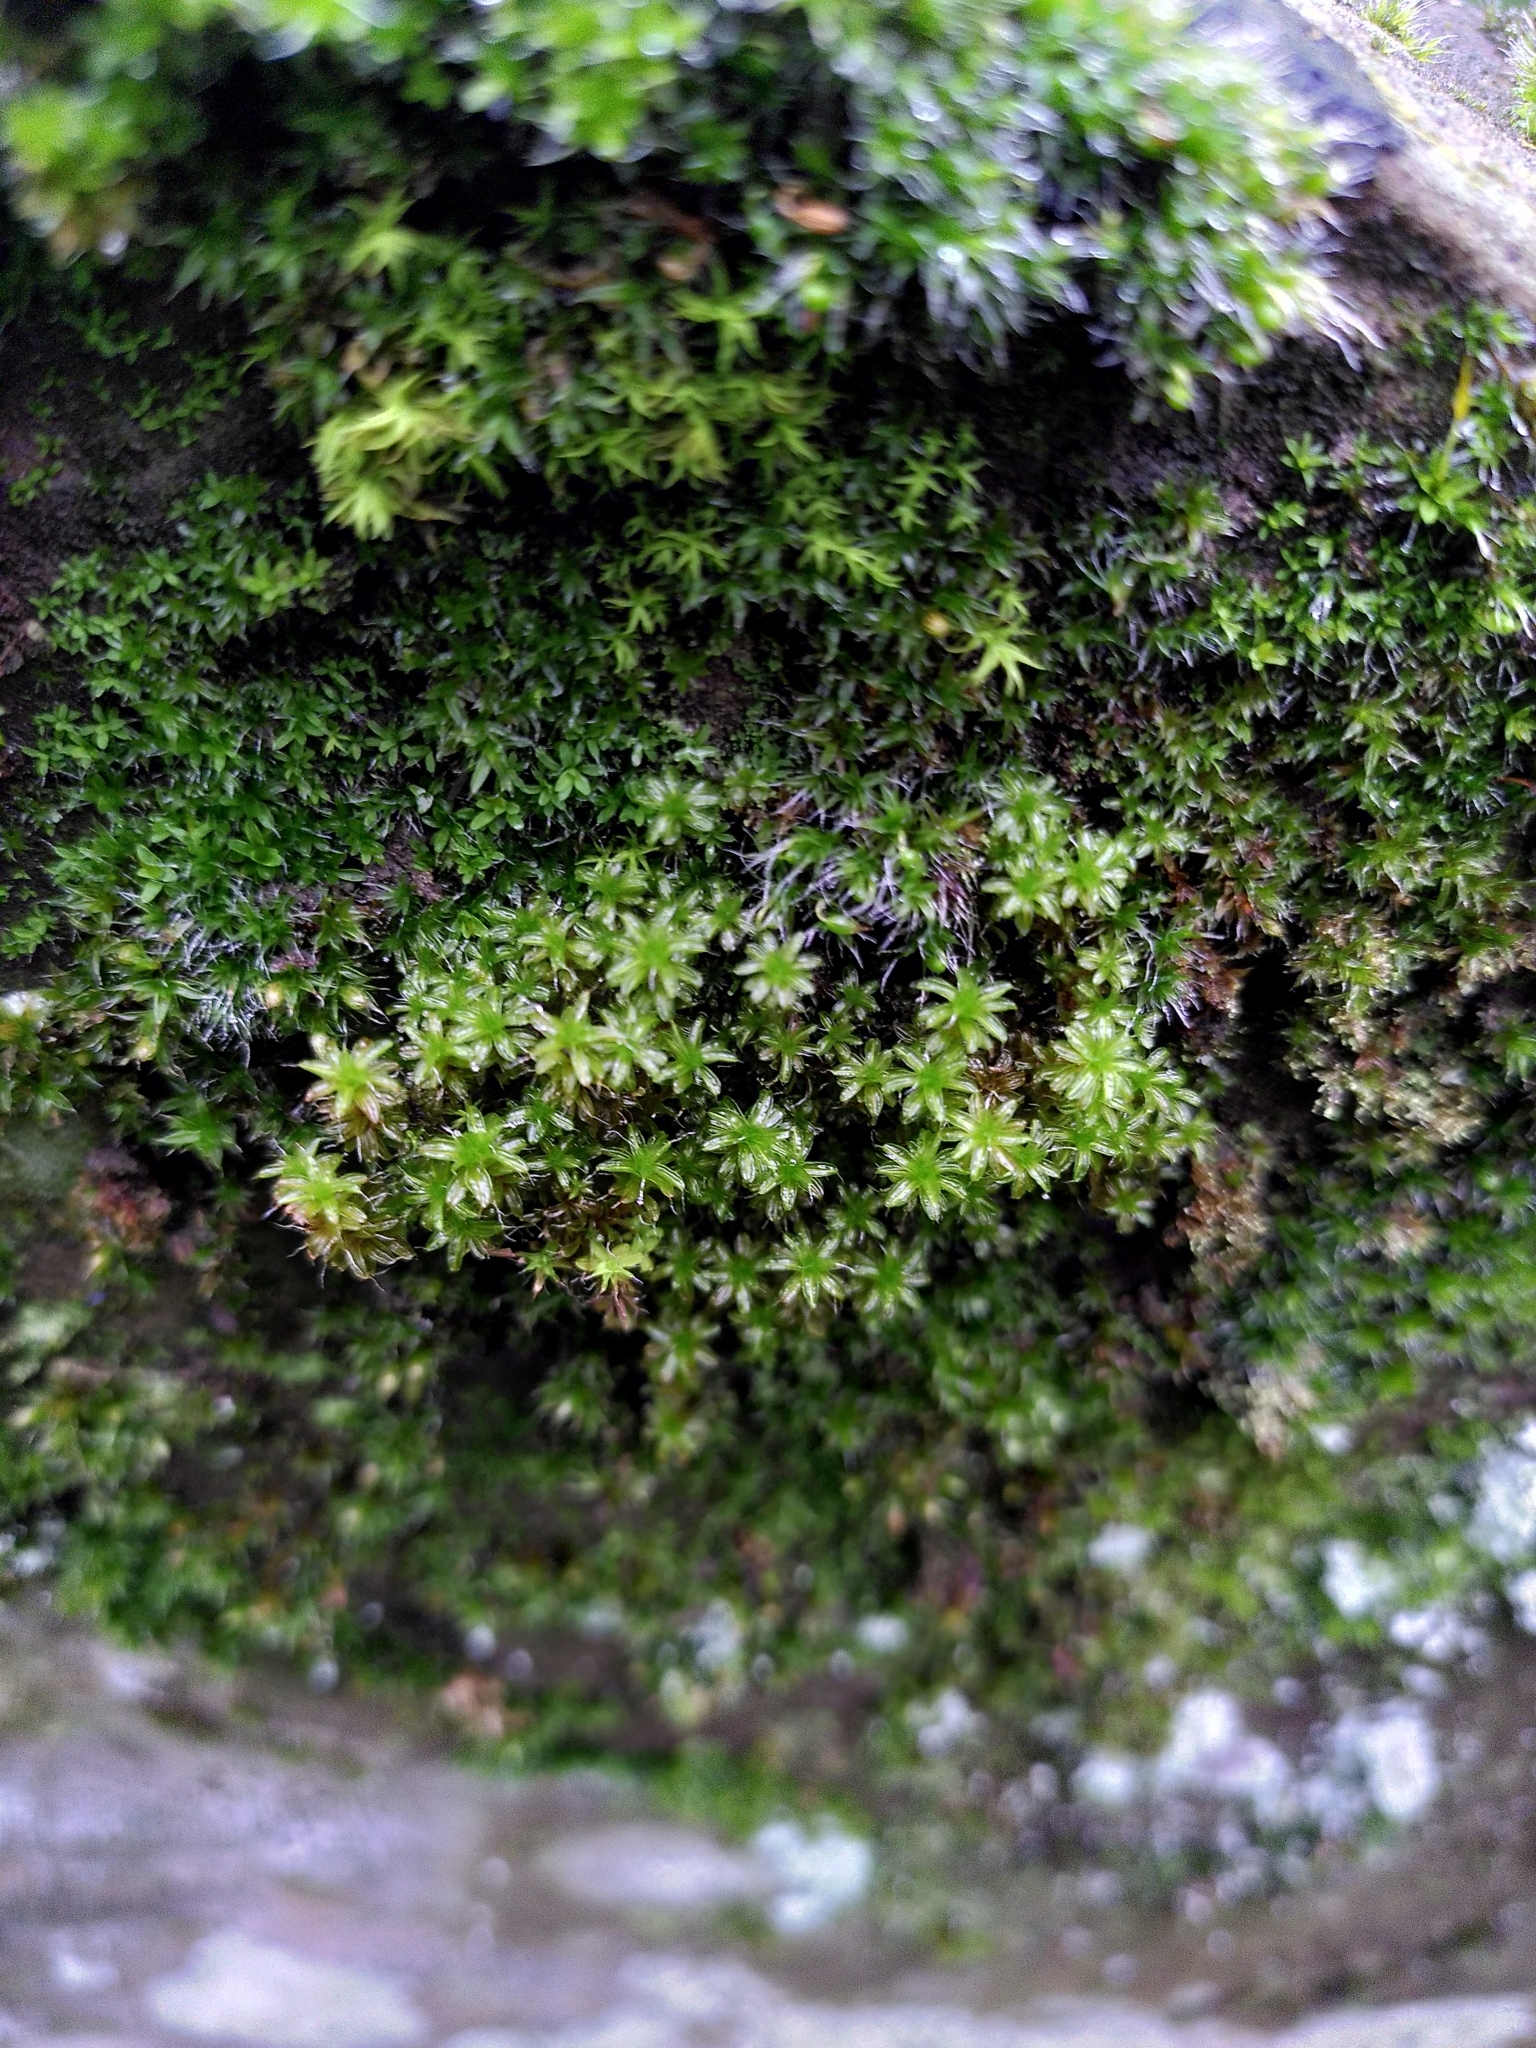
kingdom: Plantae
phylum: Bryophyta
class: Bryopsida
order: Pottiales
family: Pottiaceae
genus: Syntrichia
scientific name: Syntrichia ruralis
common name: Sidewalk screw moss
